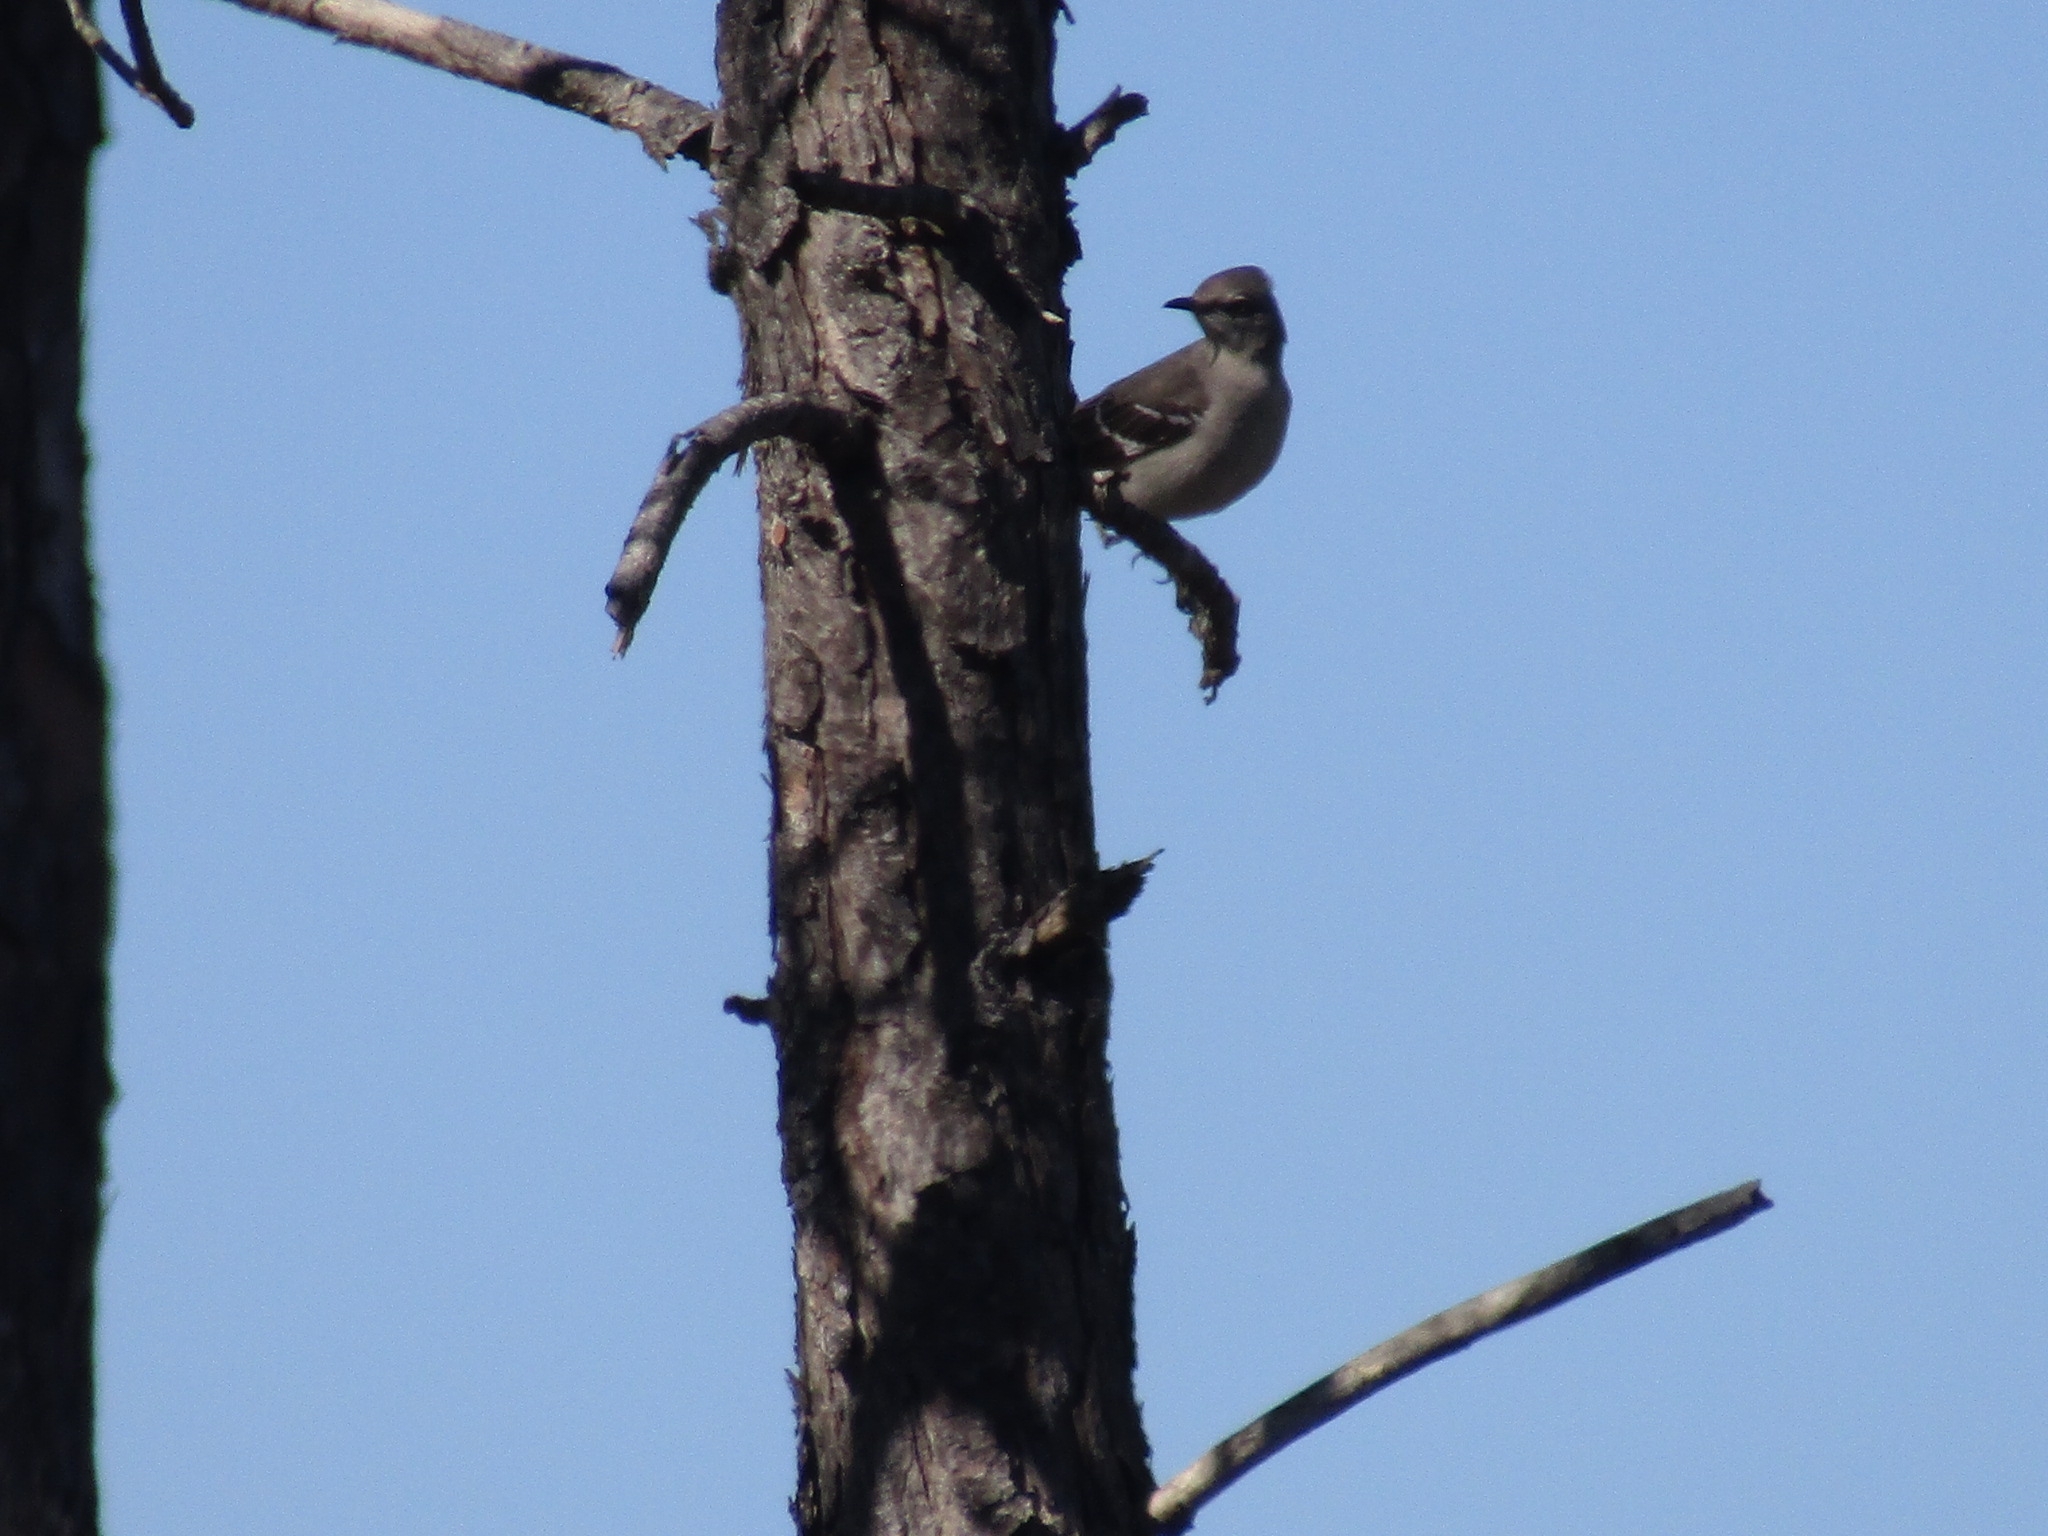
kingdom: Animalia
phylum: Chordata
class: Aves
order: Passeriformes
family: Mimidae
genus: Mimus
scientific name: Mimus polyglottos
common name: Northern mockingbird
